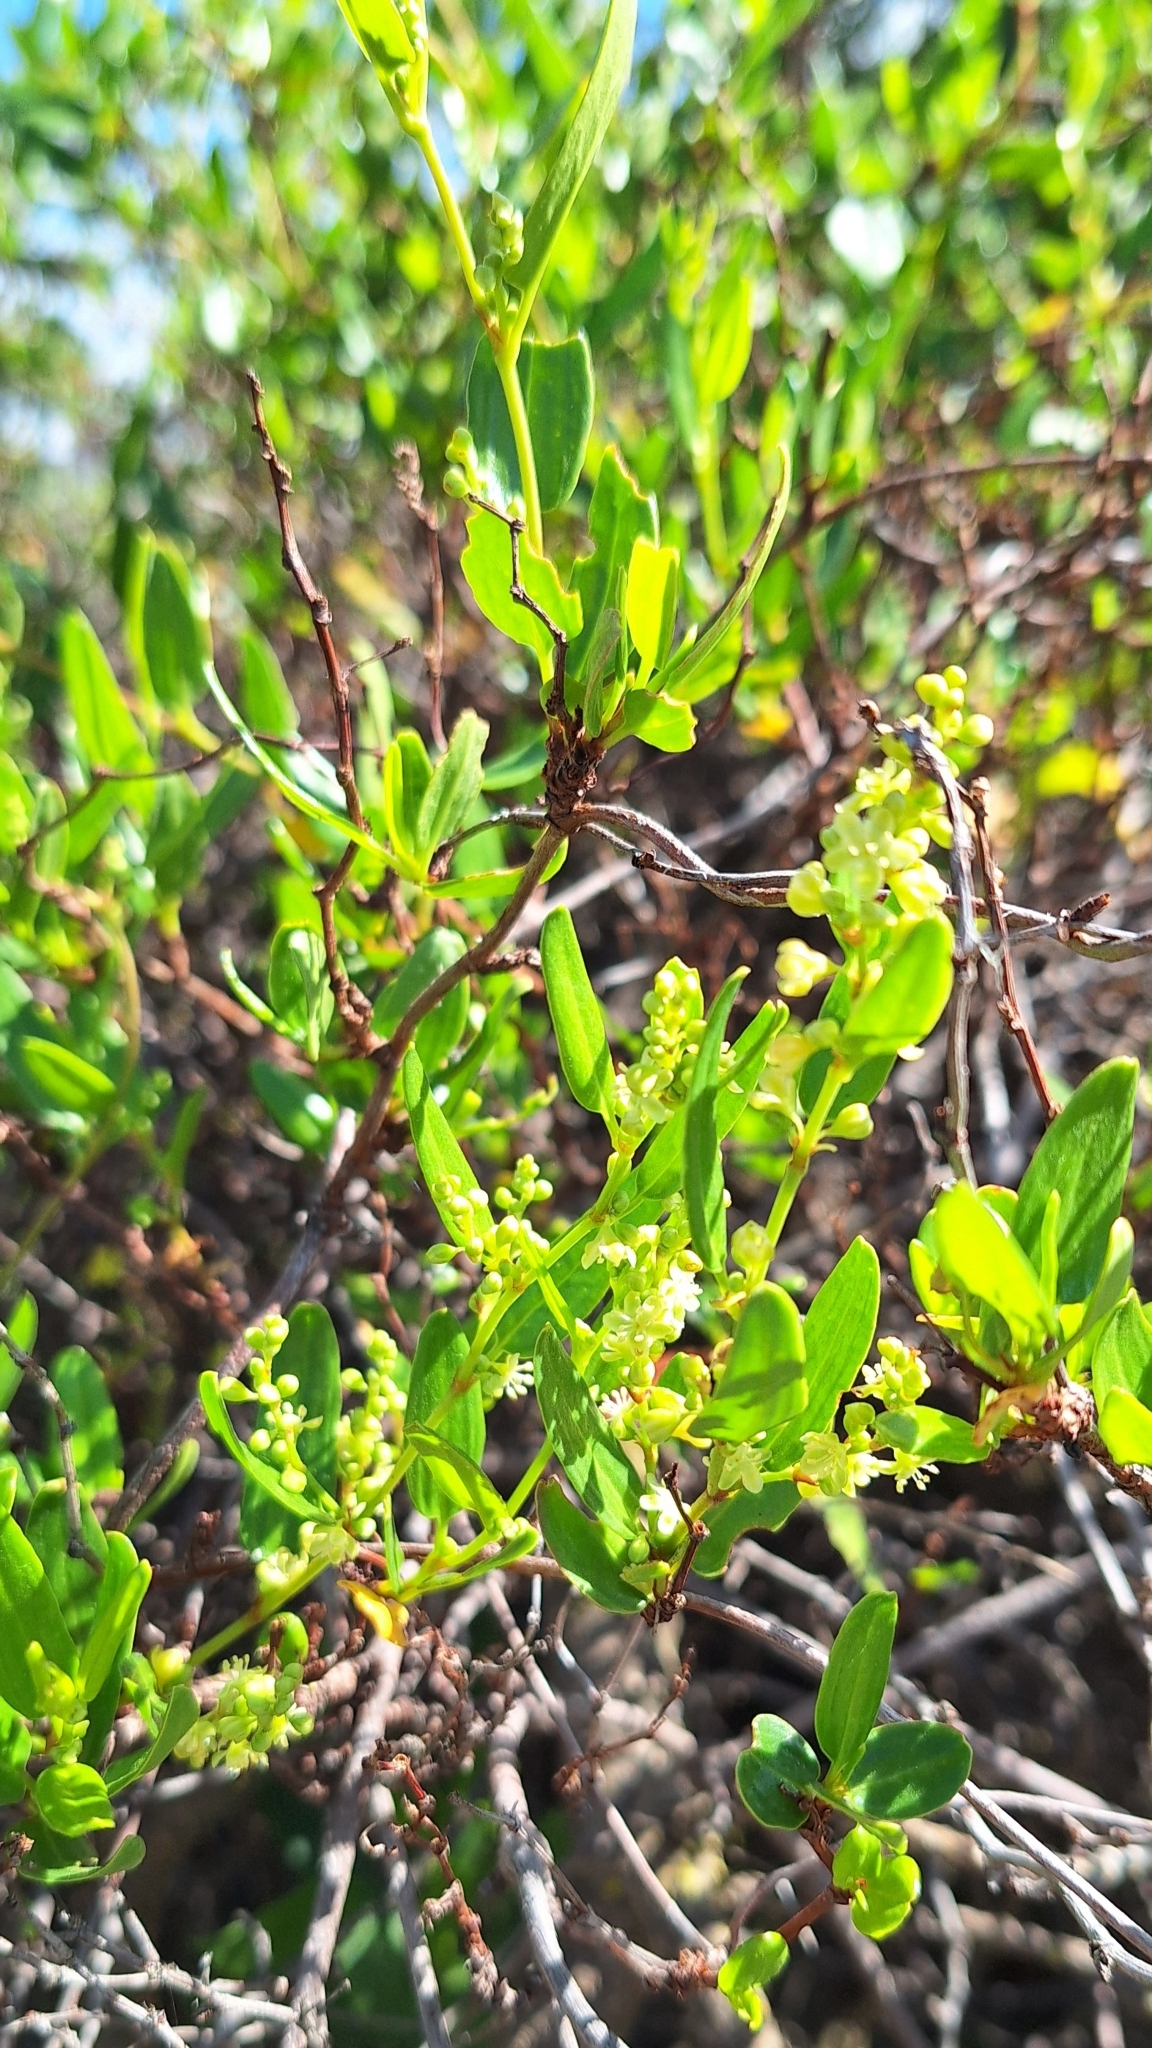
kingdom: Plantae
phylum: Tracheophyta
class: Magnoliopsida
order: Caryophyllales
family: Polygonaceae
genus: Muehlenbeckia
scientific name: Muehlenbeckia gunnii
